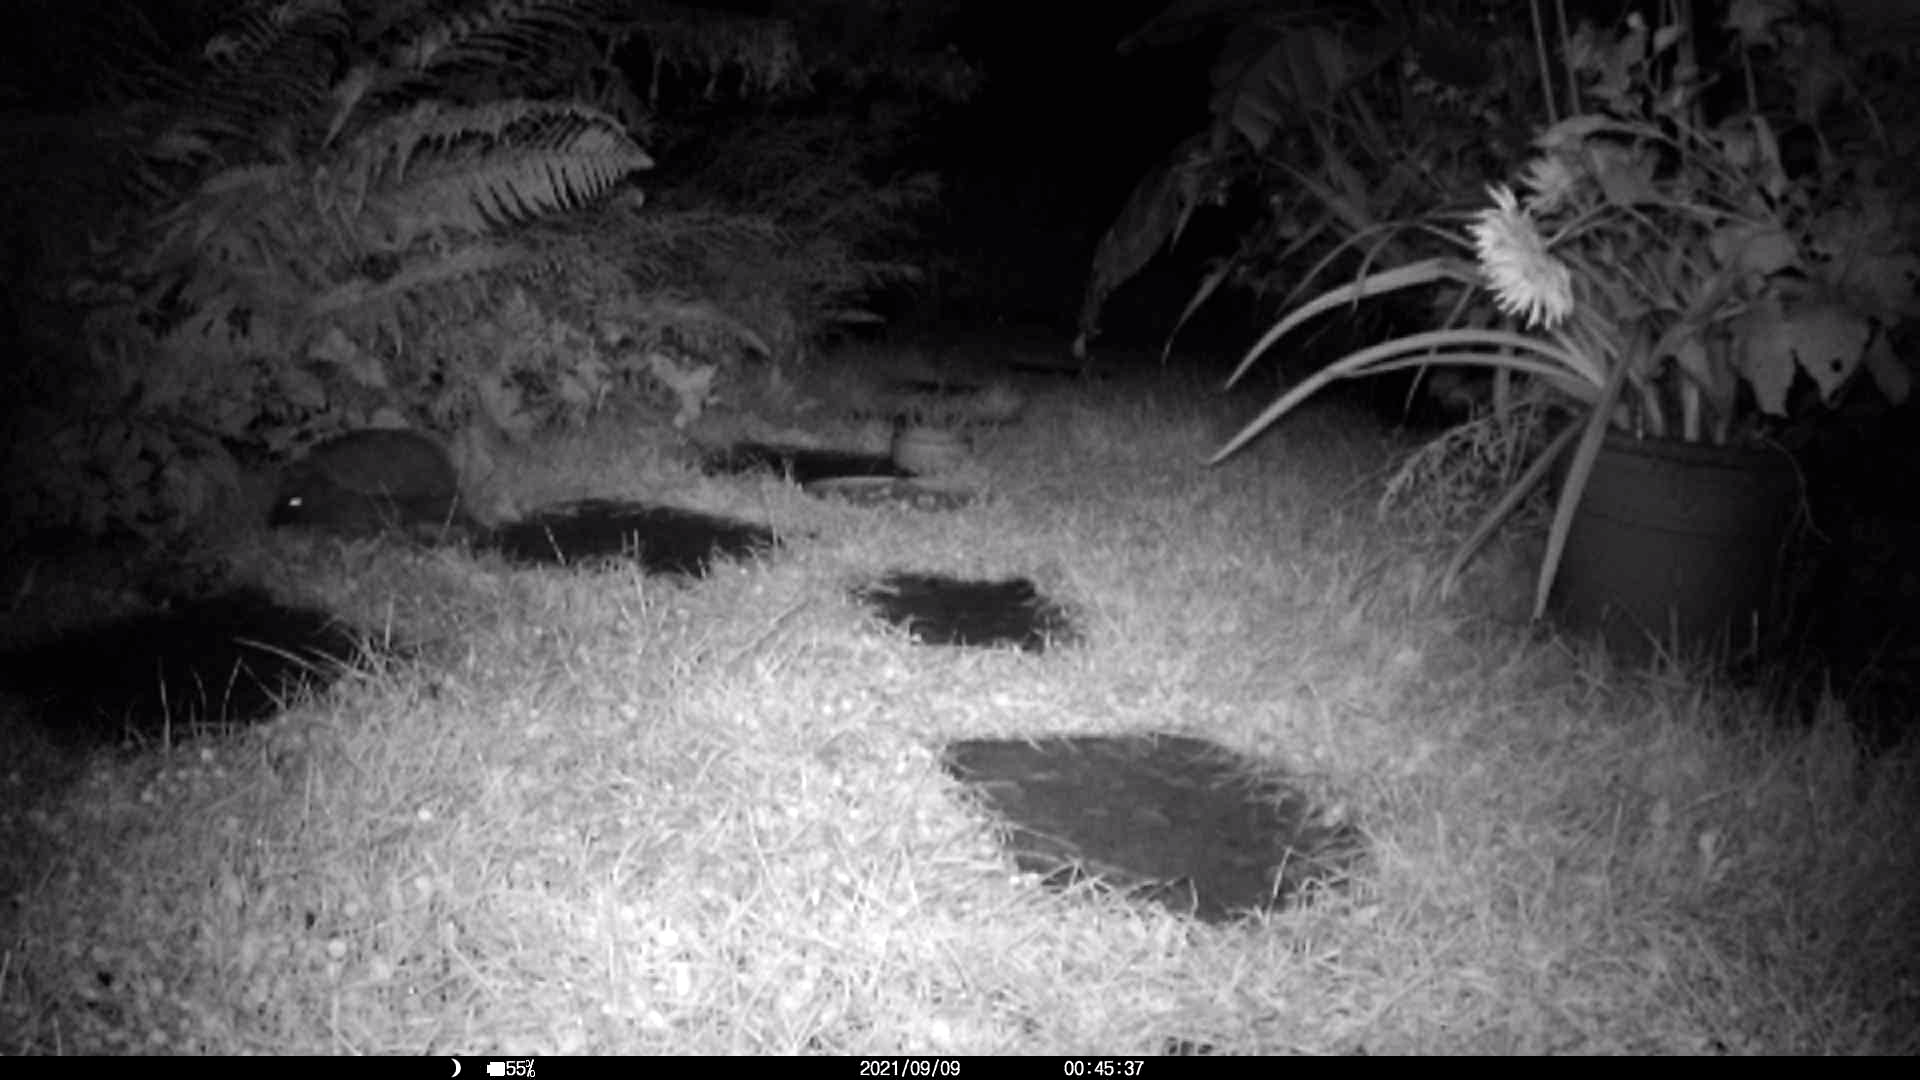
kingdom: Animalia
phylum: Chordata
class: Mammalia
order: Erinaceomorpha
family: Erinaceidae
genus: Erinaceus
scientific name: Erinaceus europaeus
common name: West european hedgehog
